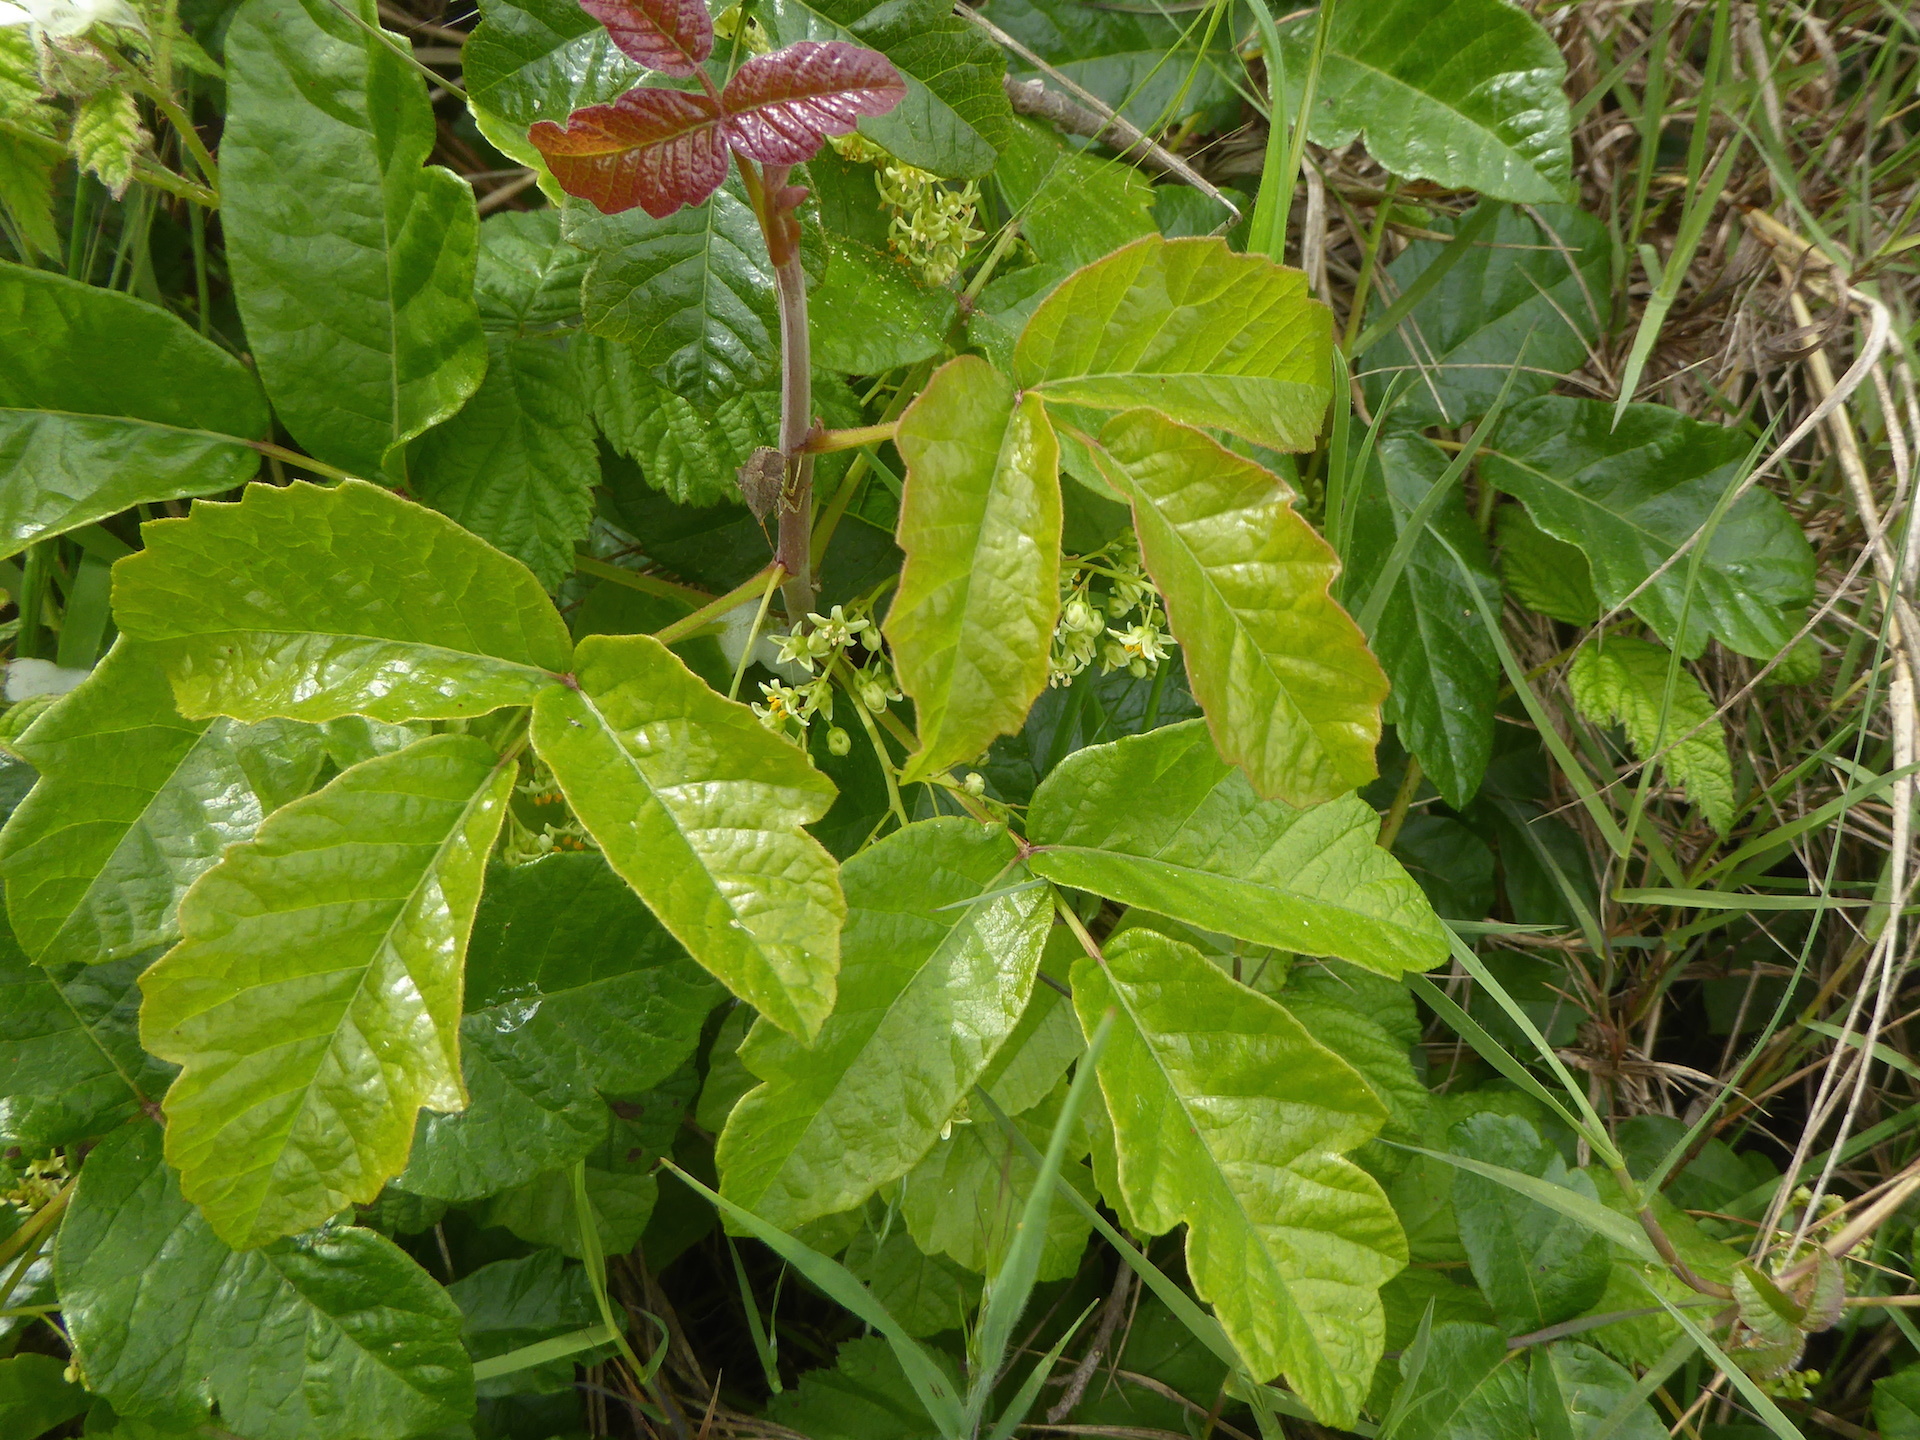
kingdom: Plantae
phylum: Tracheophyta
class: Magnoliopsida
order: Sapindales
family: Anacardiaceae
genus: Toxicodendron
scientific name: Toxicodendron diversilobum
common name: Pacific poison-oak
